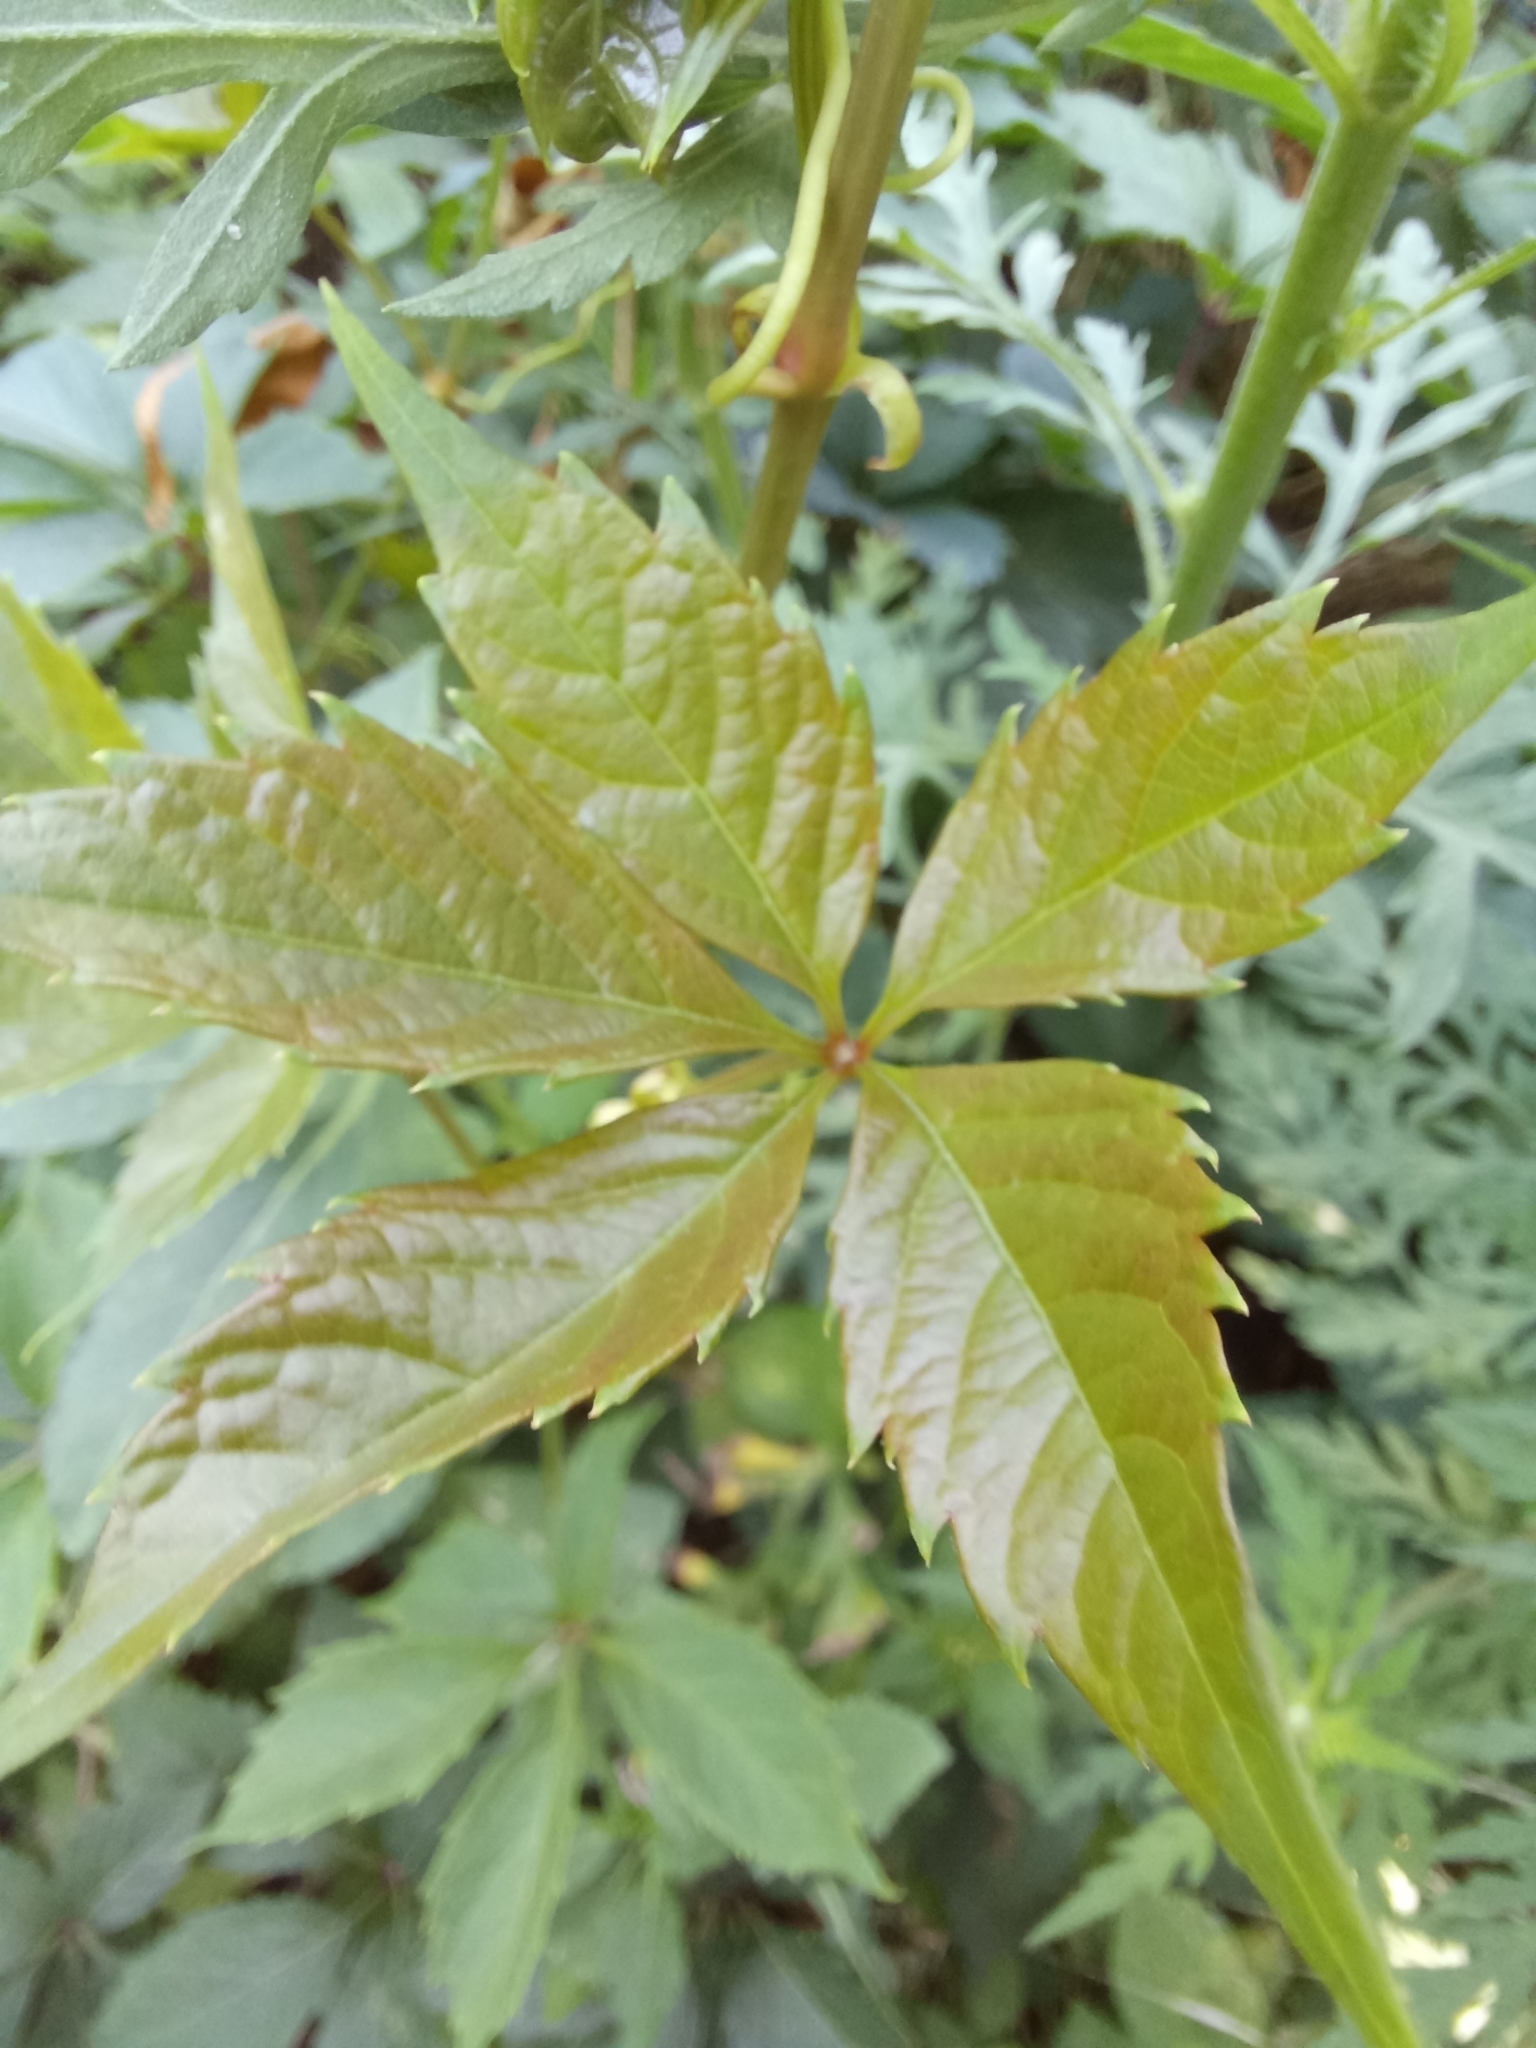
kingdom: Plantae
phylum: Tracheophyta
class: Magnoliopsida
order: Vitales
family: Vitaceae
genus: Parthenocissus
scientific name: Parthenocissus inserta
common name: False virginia-creeper
